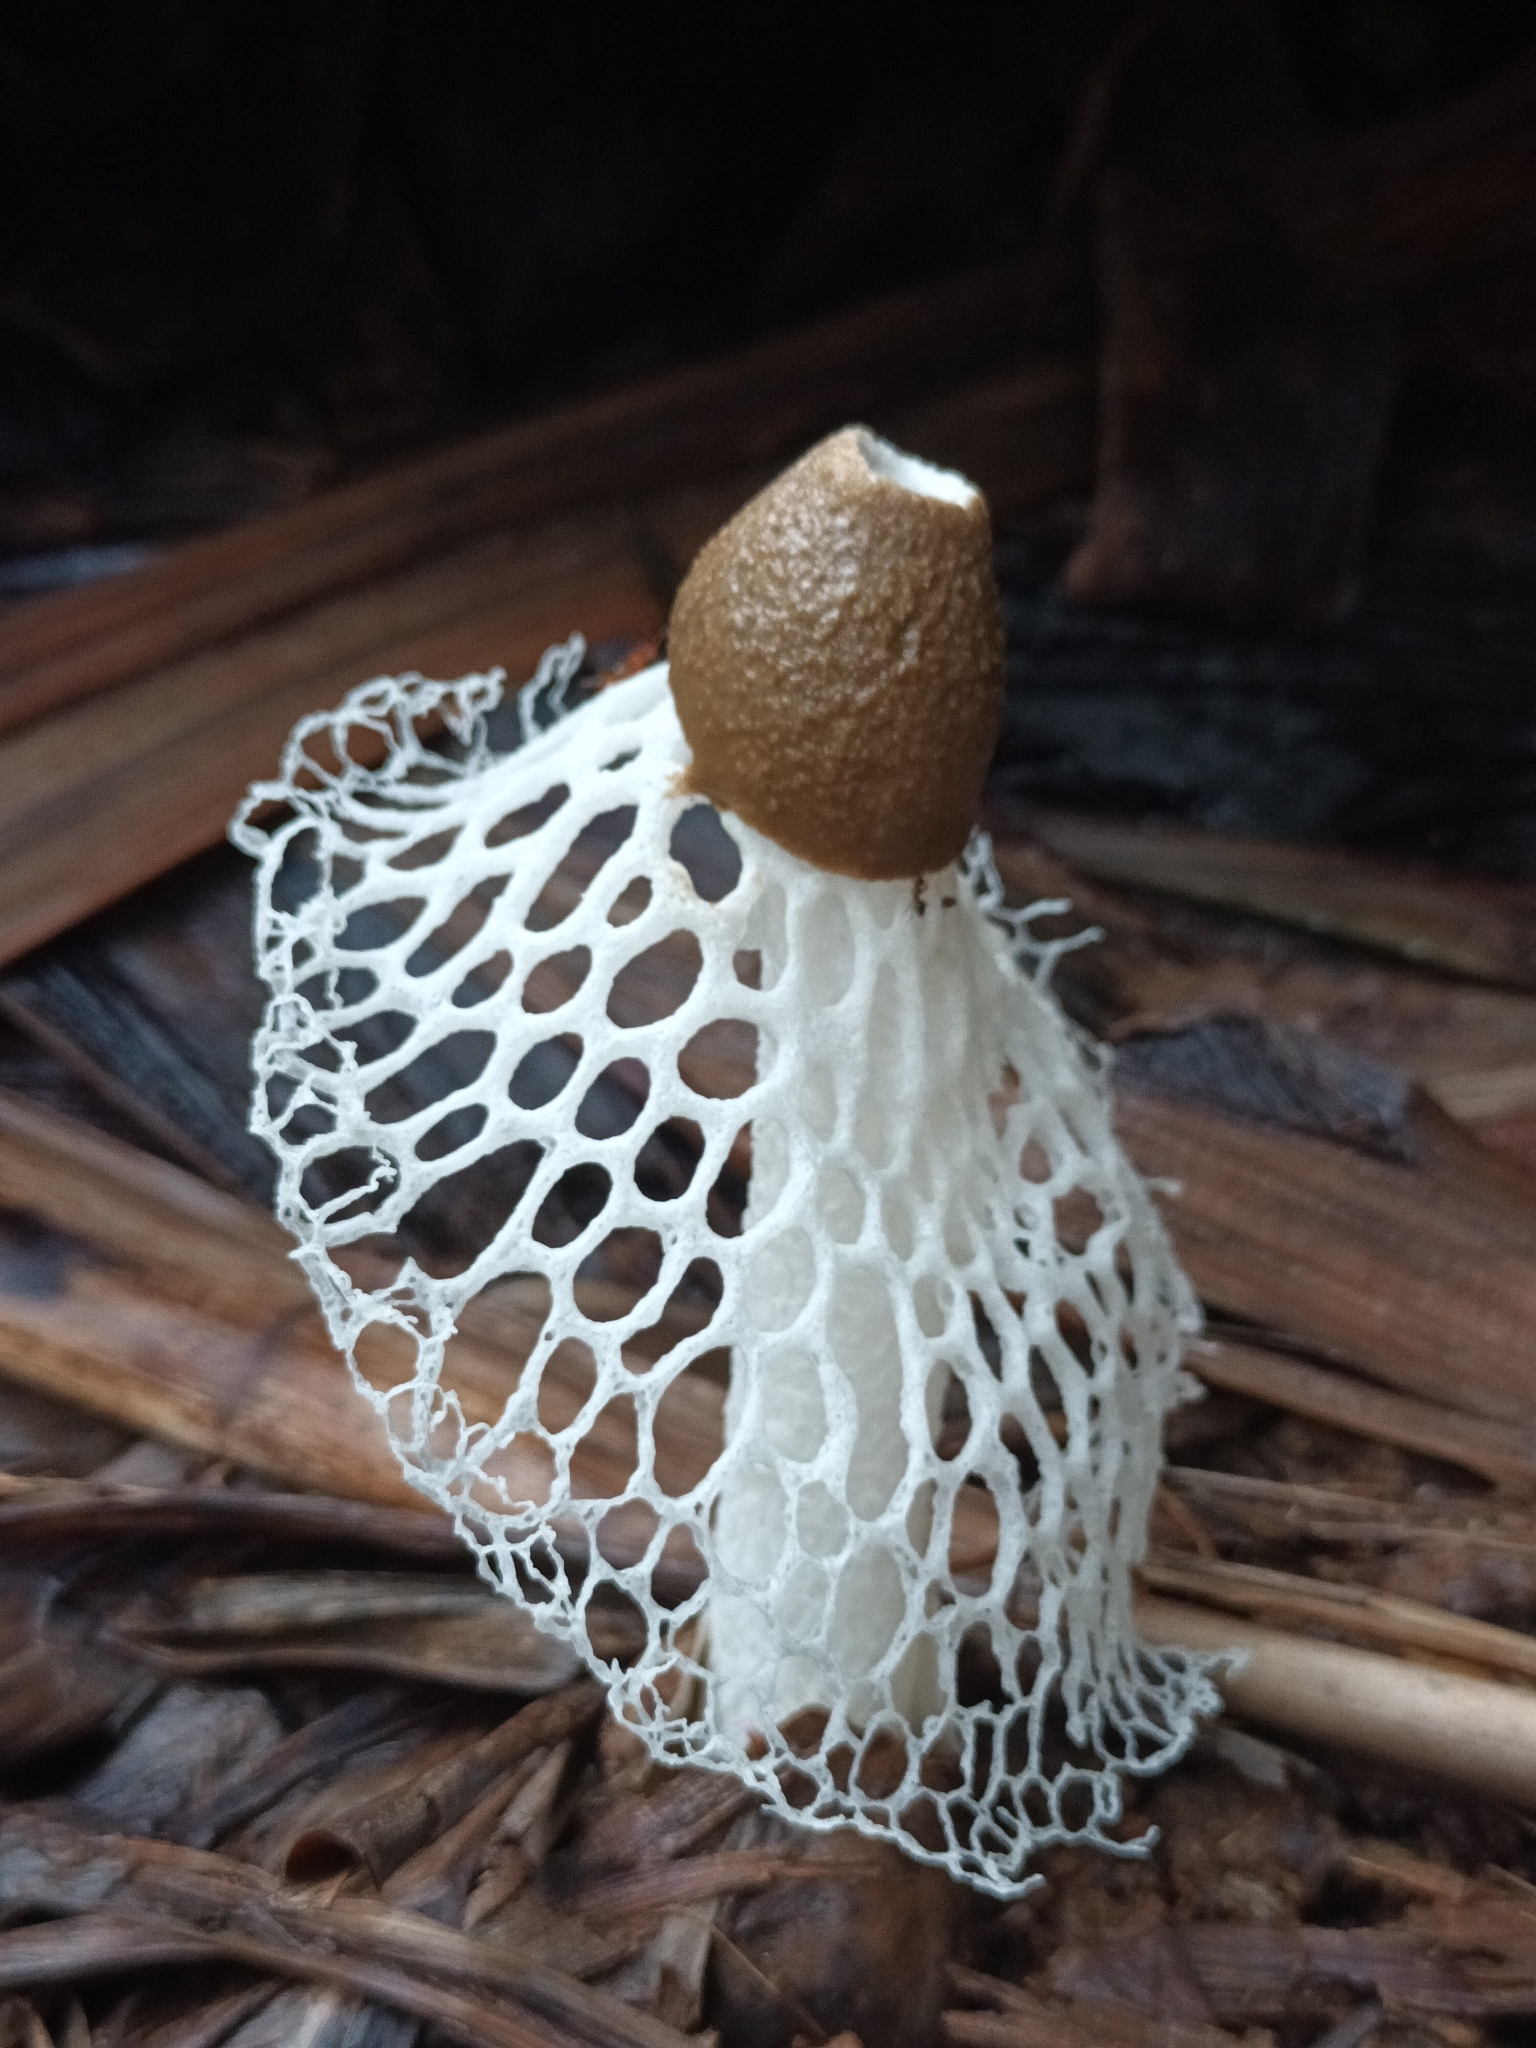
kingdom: Fungi
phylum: Basidiomycota
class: Agaricomycetes
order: Phallales
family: Phallaceae
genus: Phallus
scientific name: Phallus atrovolvatus
